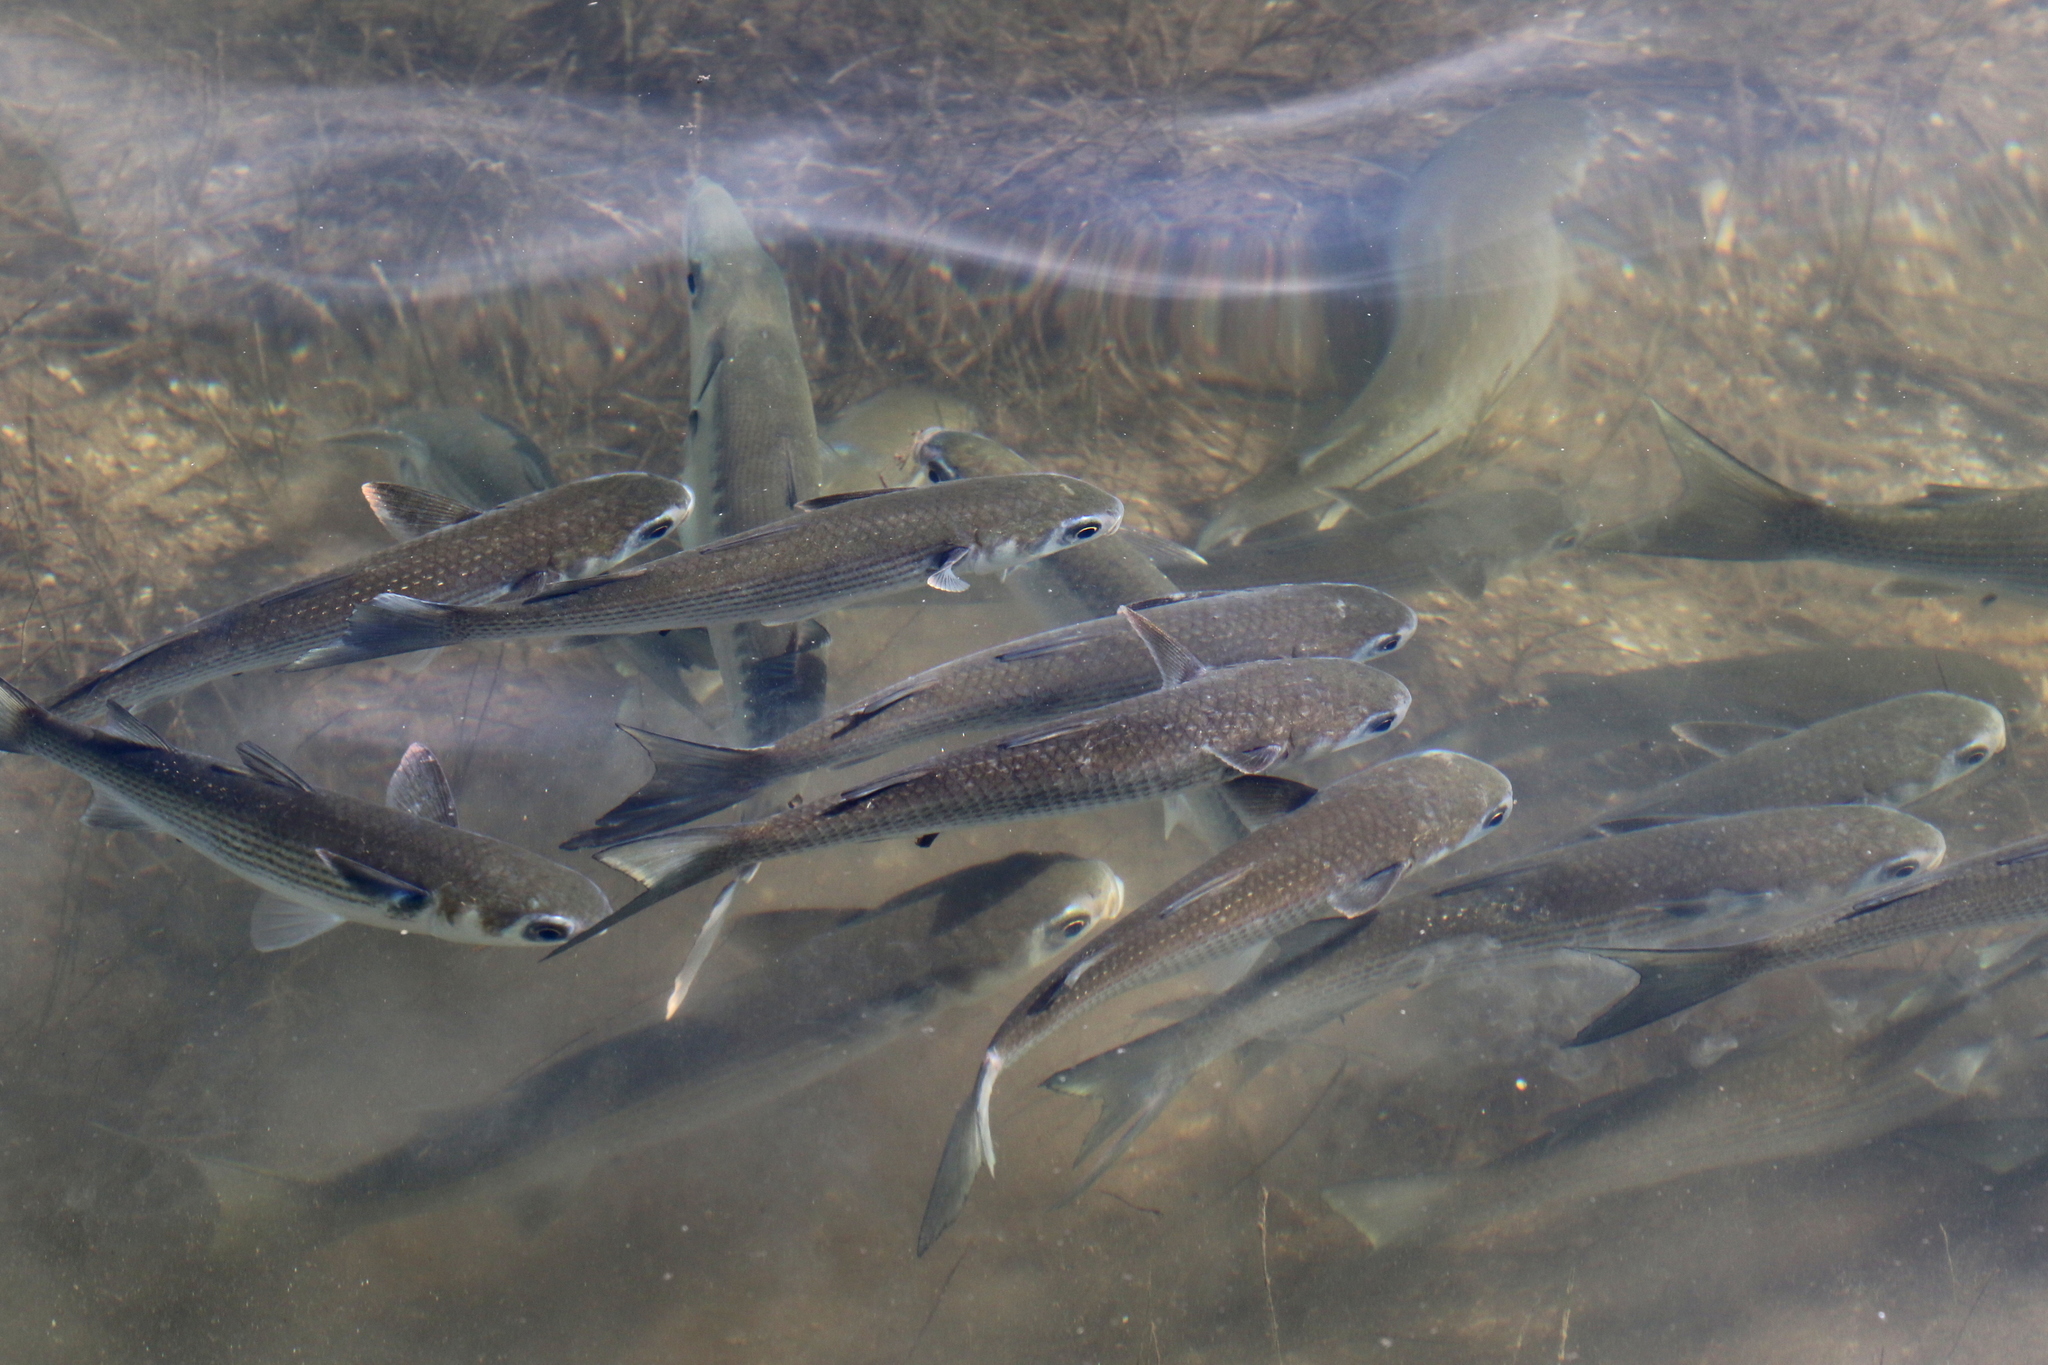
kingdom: Animalia
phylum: Chordata
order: Mugiliformes
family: Mugilidae
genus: Mugil
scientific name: Mugil cephalus
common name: Grey mullet
